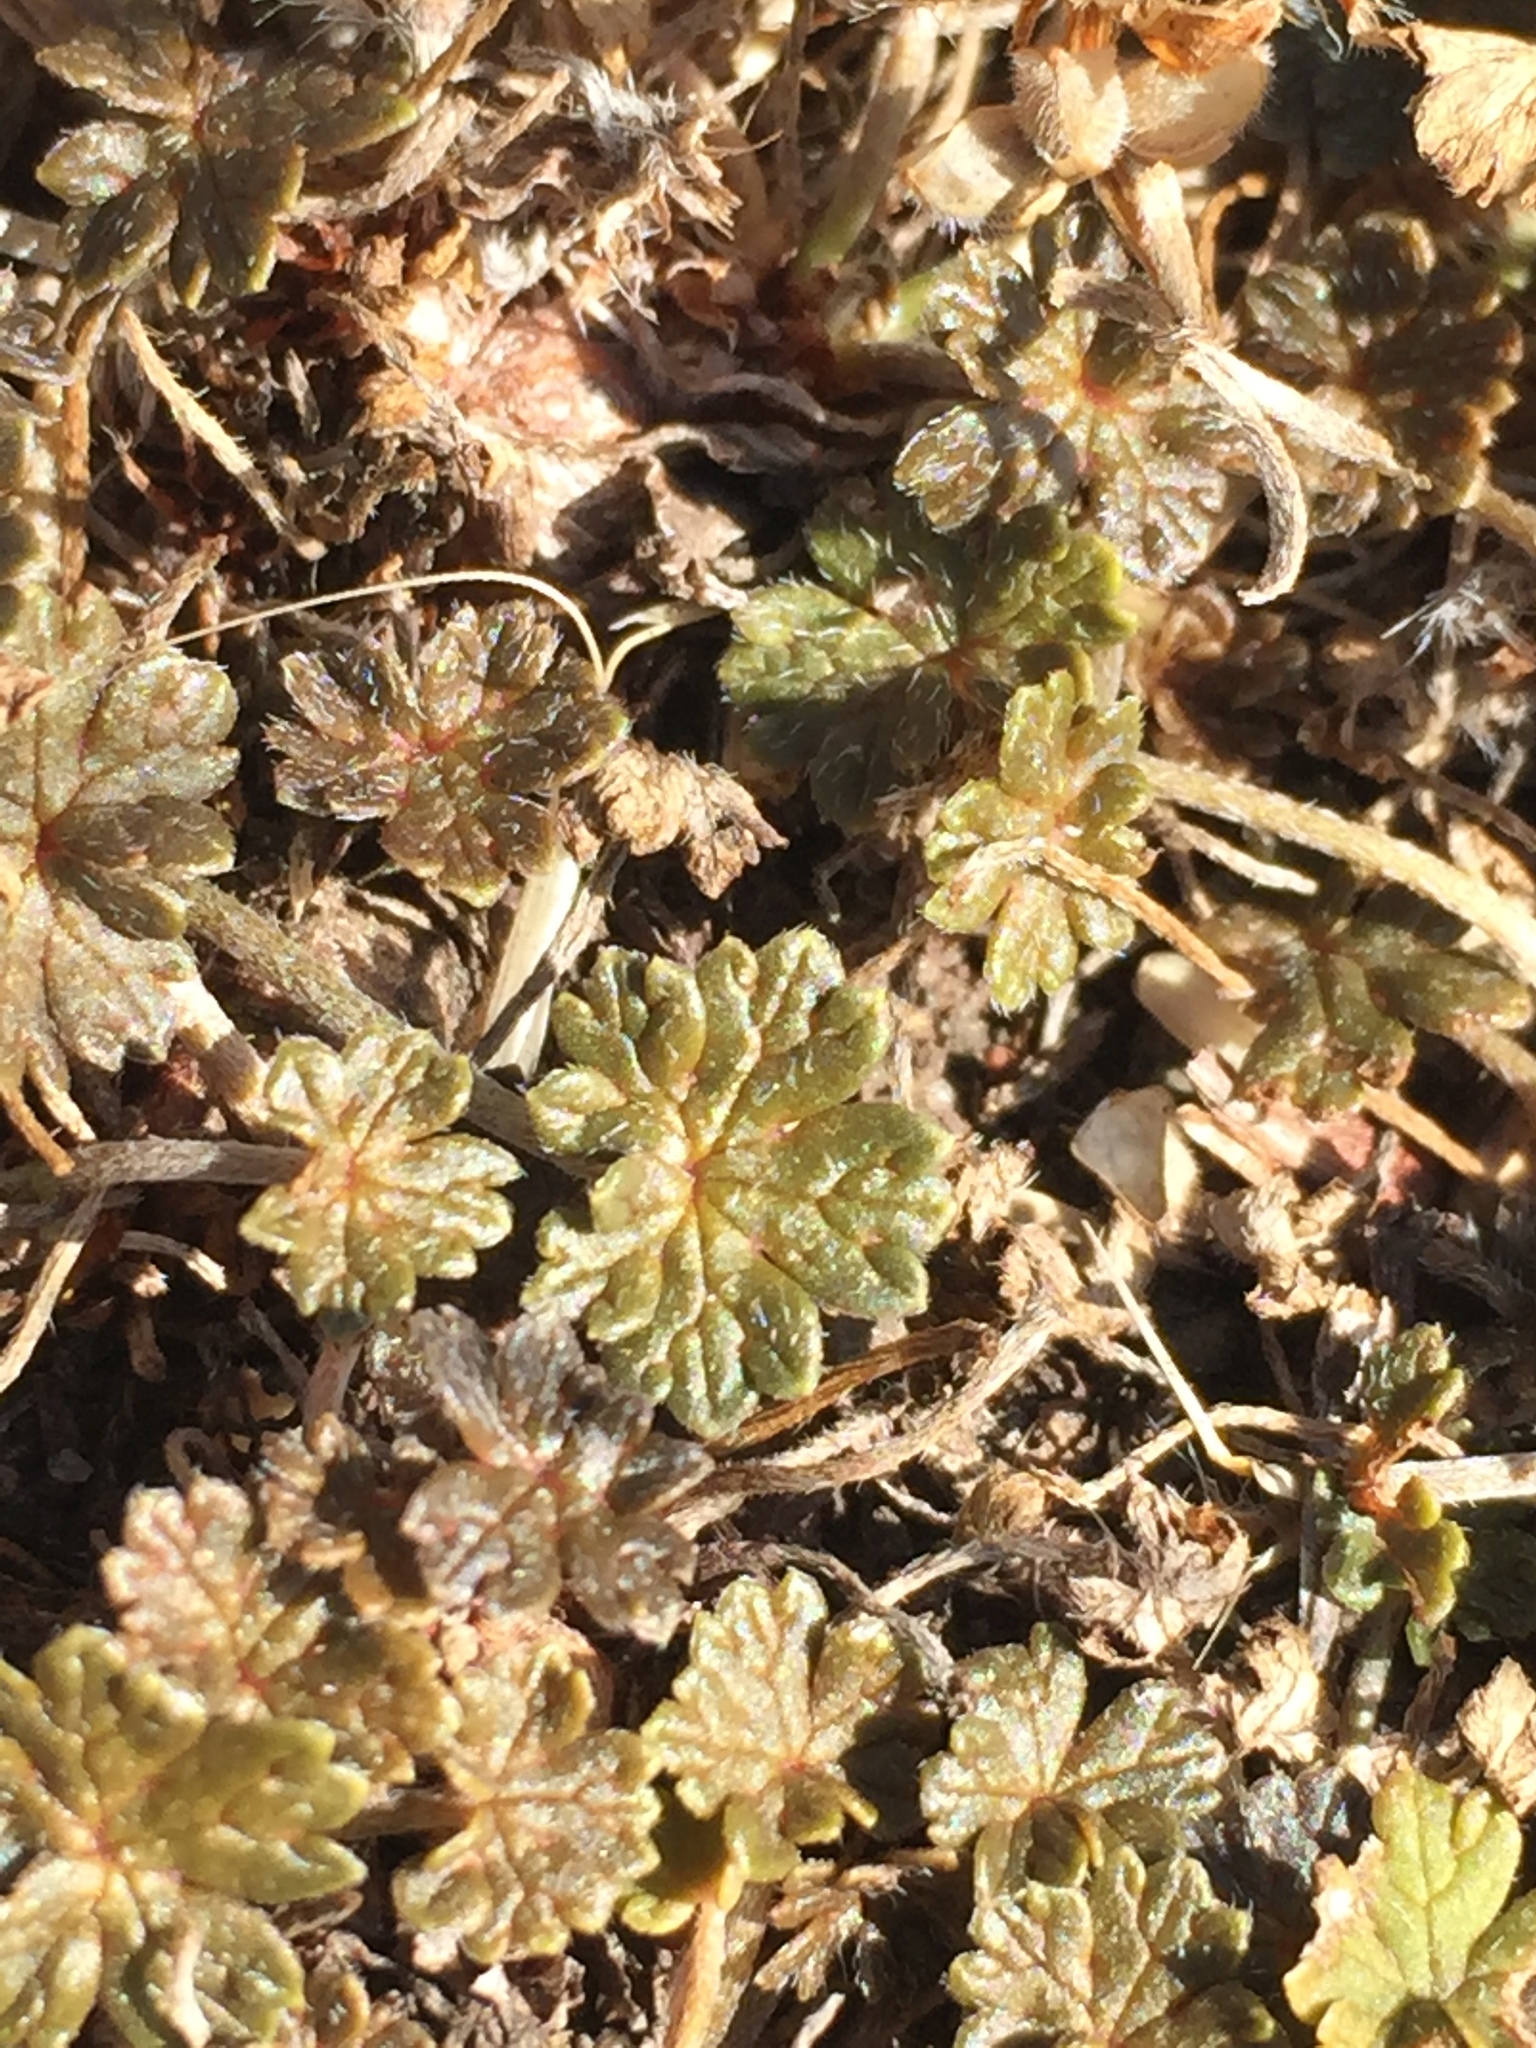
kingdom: Plantae
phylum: Tracheophyta
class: Magnoliopsida
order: Geraniales
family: Geraniaceae
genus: Geranium
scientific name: Geranium brevicaule
